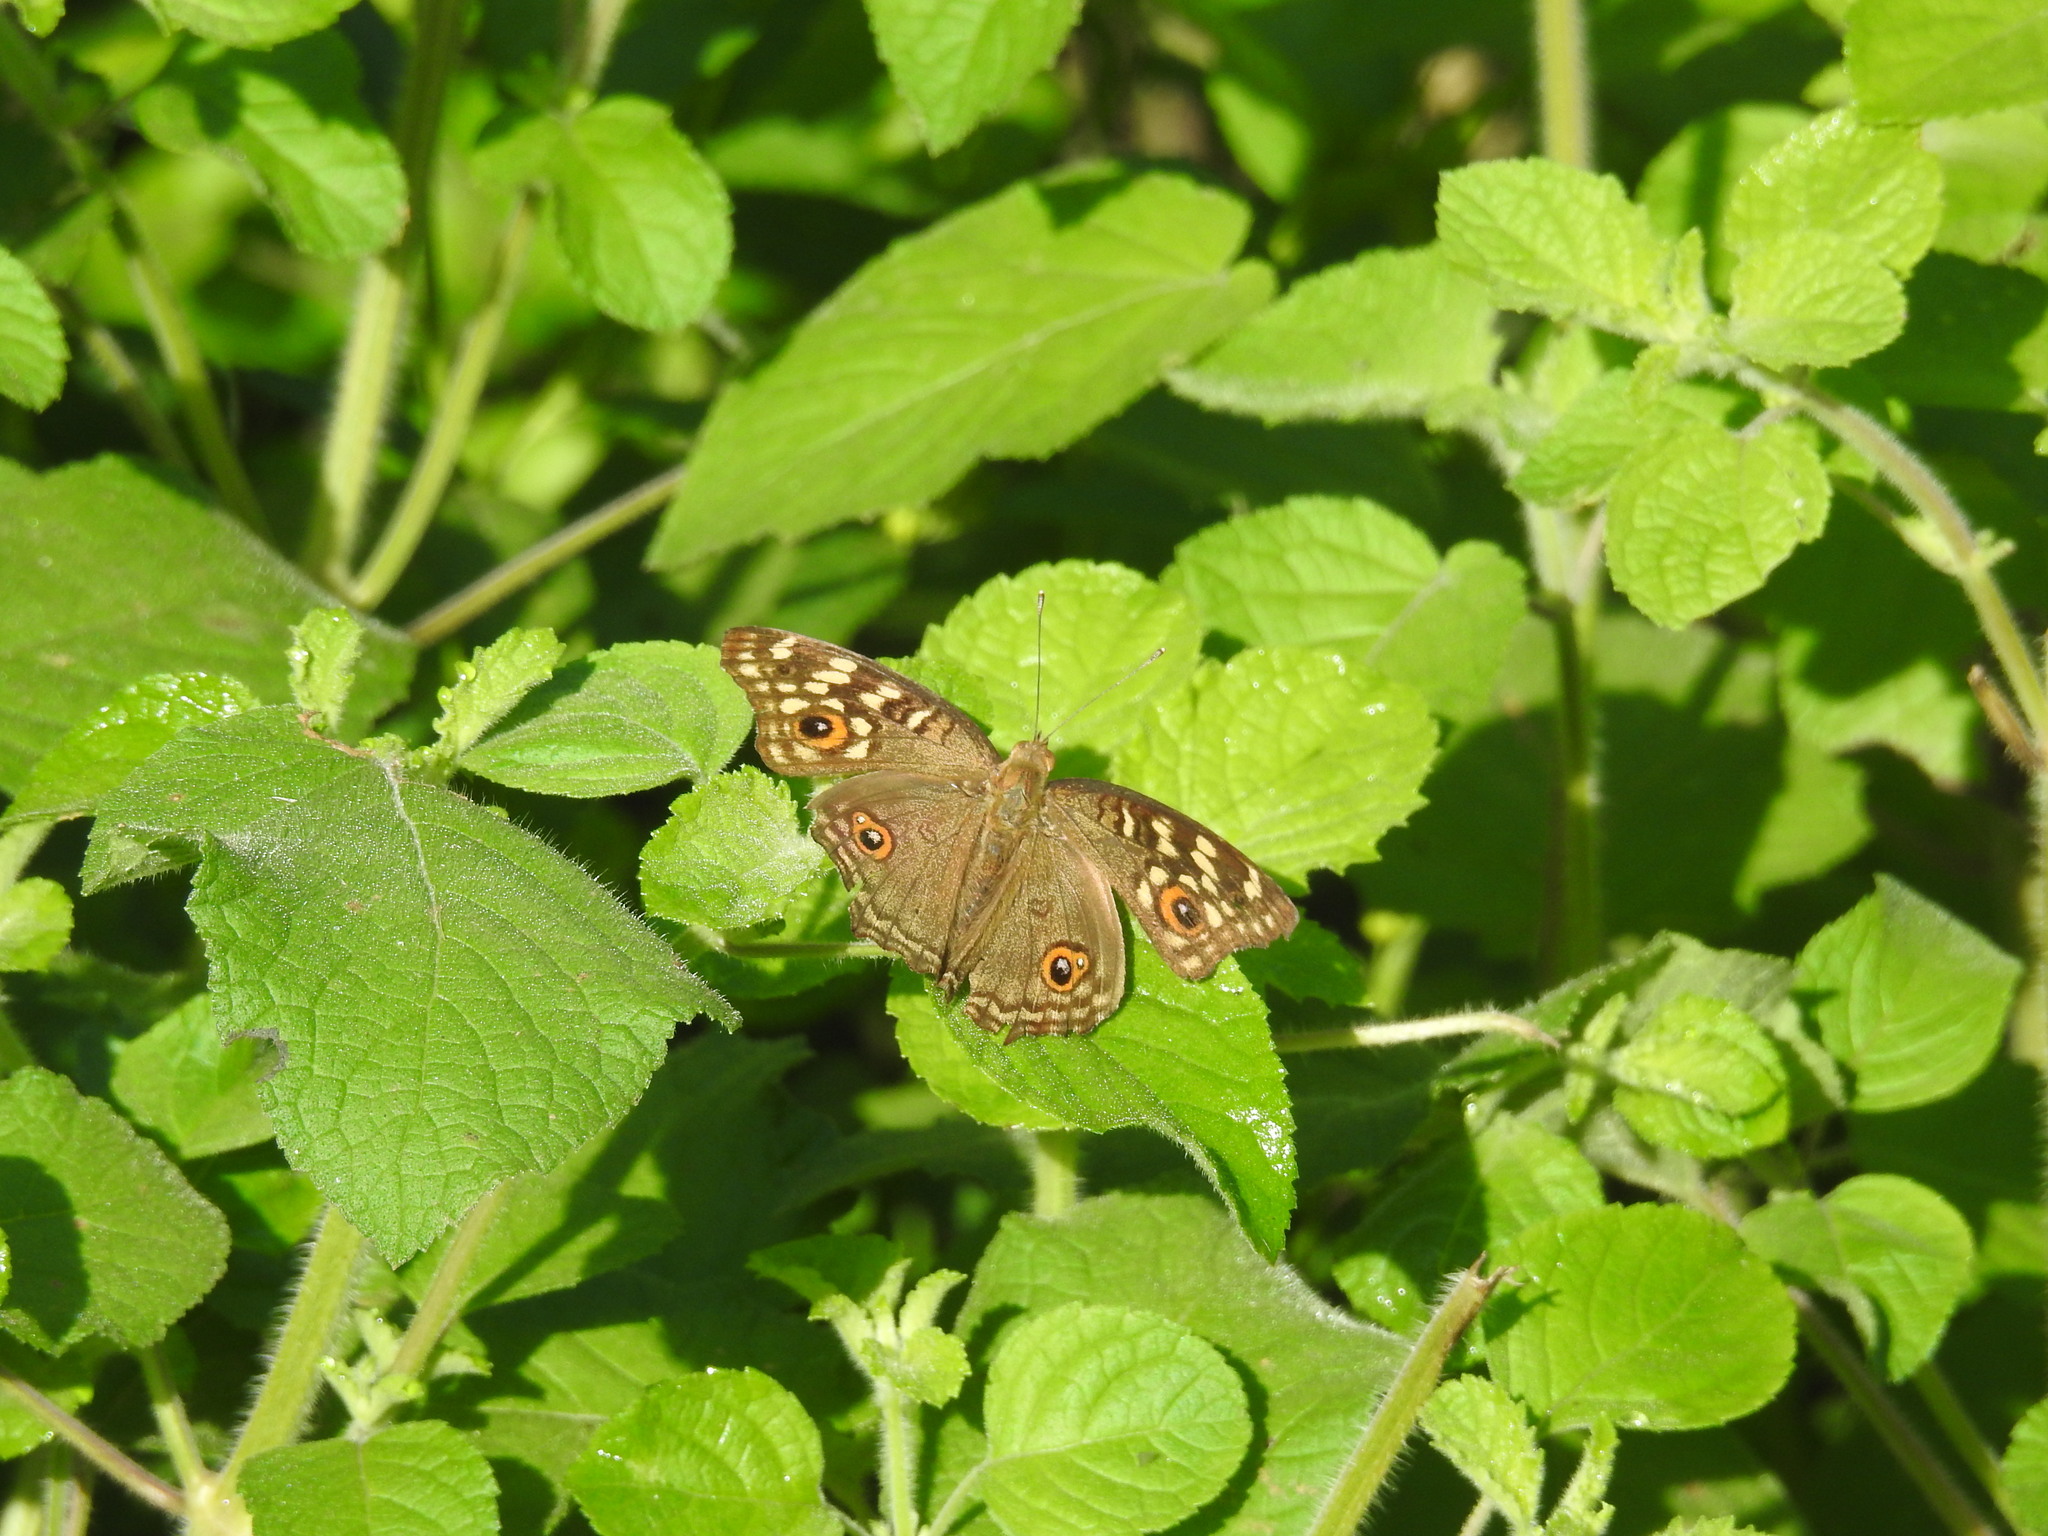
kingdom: Animalia
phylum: Arthropoda
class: Insecta
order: Lepidoptera
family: Nymphalidae
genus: Junonia
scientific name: Junonia lemonias
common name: Lemon pansy
